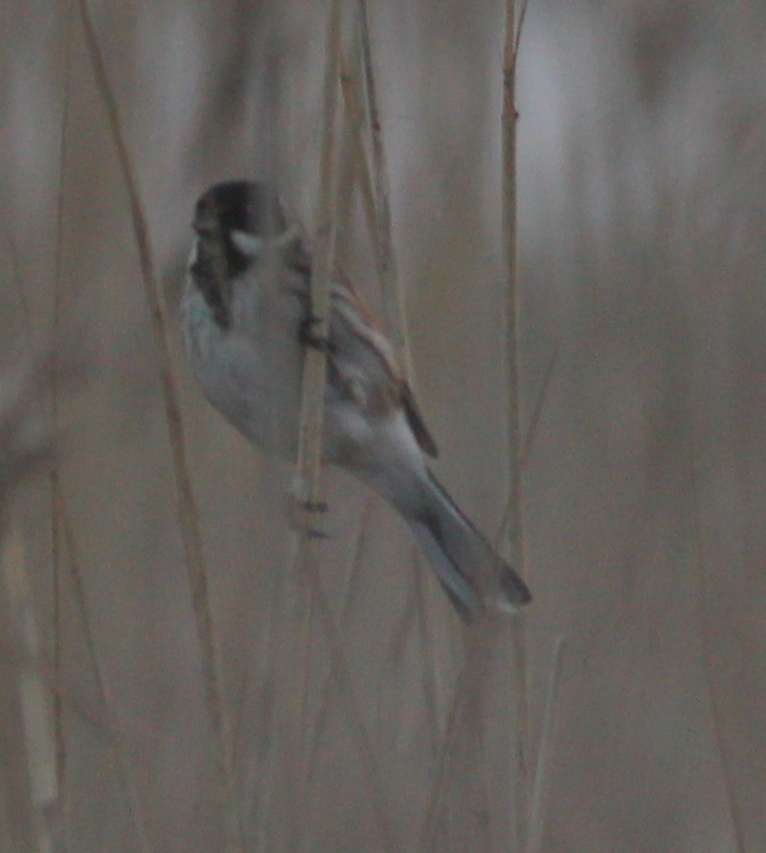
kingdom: Animalia
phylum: Chordata
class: Aves
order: Passeriformes
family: Emberizidae
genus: Emberiza
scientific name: Emberiza schoeniclus
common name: Reed bunting
